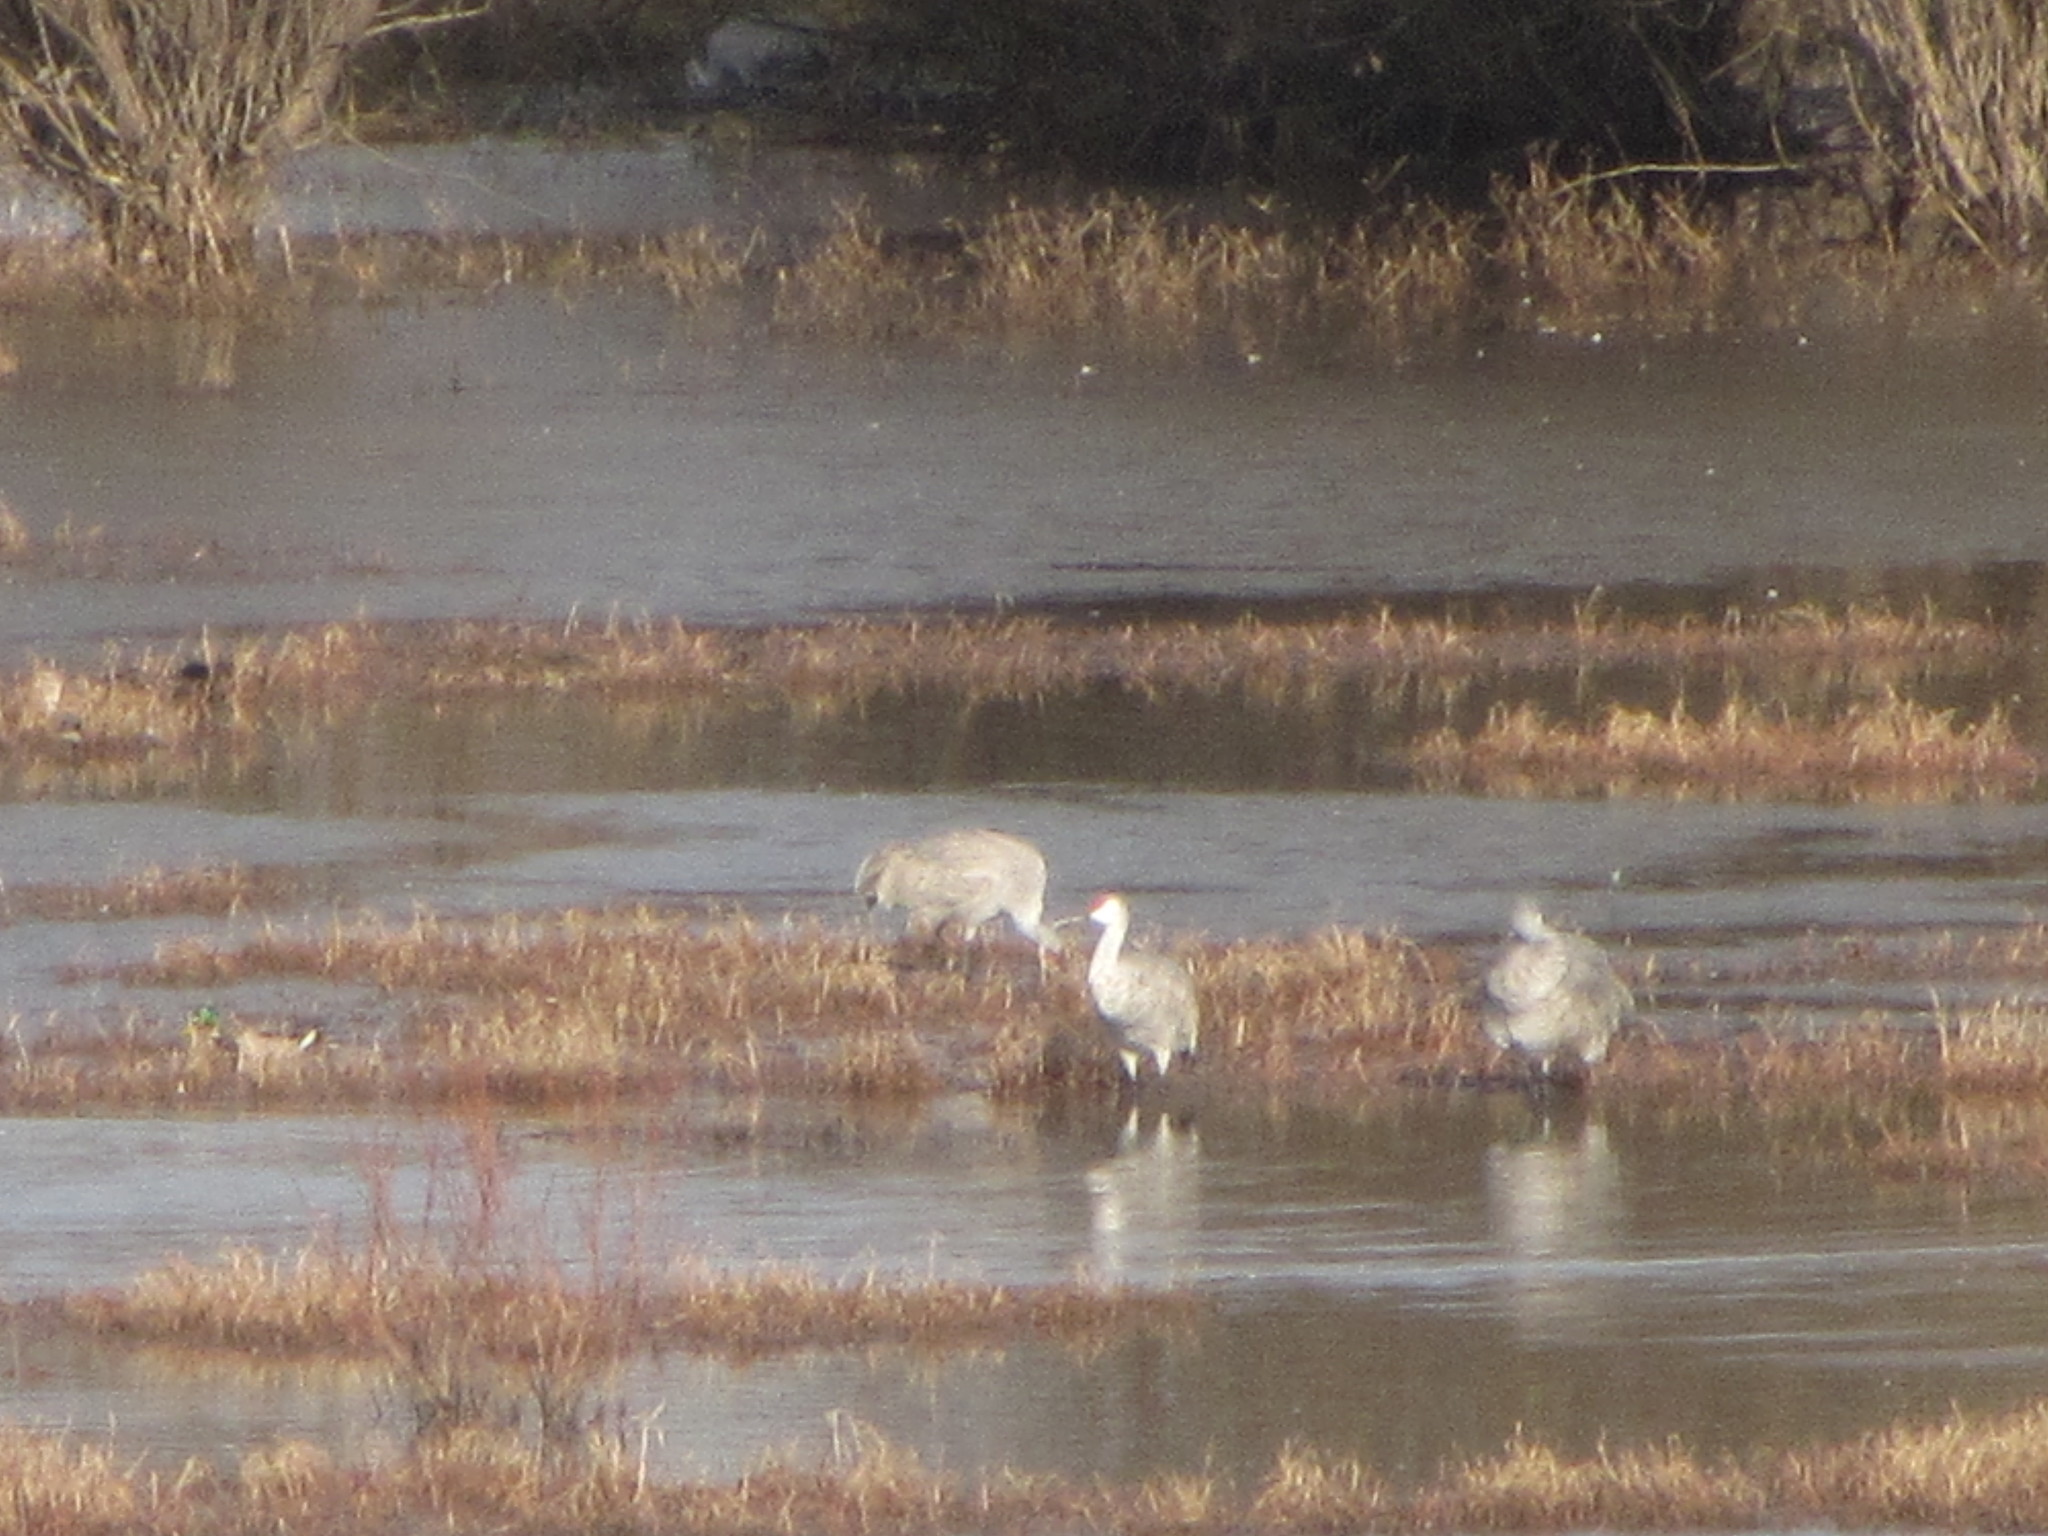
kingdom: Animalia
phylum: Chordata
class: Aves
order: Gruiformes
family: Gruidae
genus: Grus
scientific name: Grus canadensis
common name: Sandhill crane
